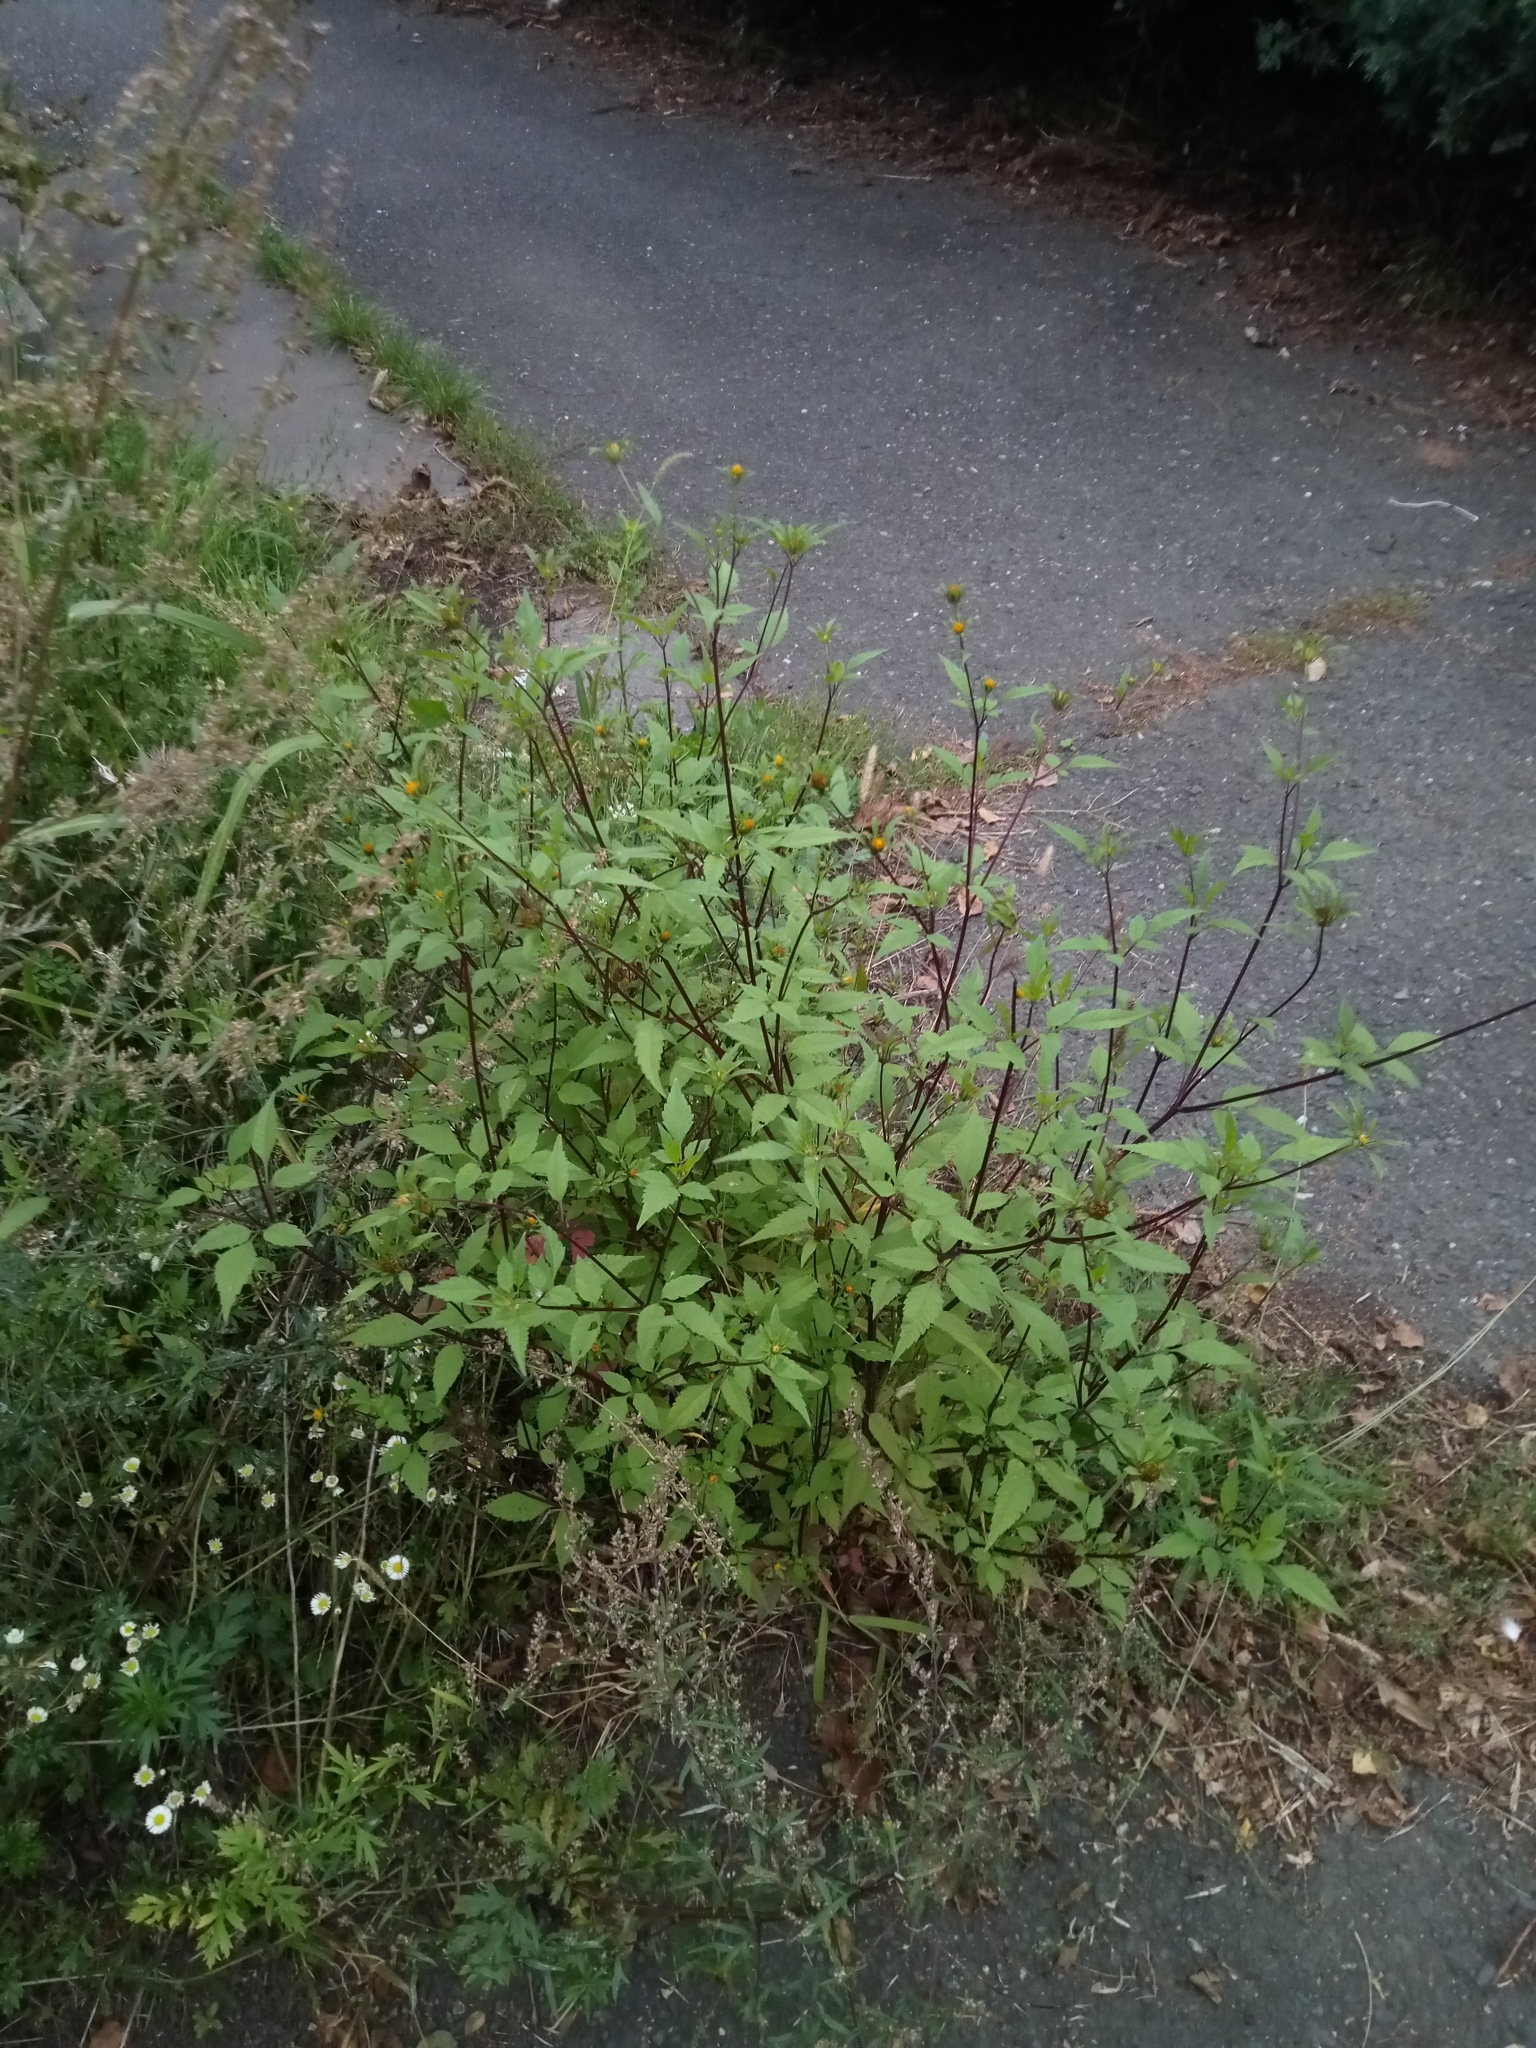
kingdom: Plantae
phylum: Tracheophyta
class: Magnoliopsida
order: Asterales
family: Asteraceae
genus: Bidens
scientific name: Bidens frondosa
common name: Beggarticks
